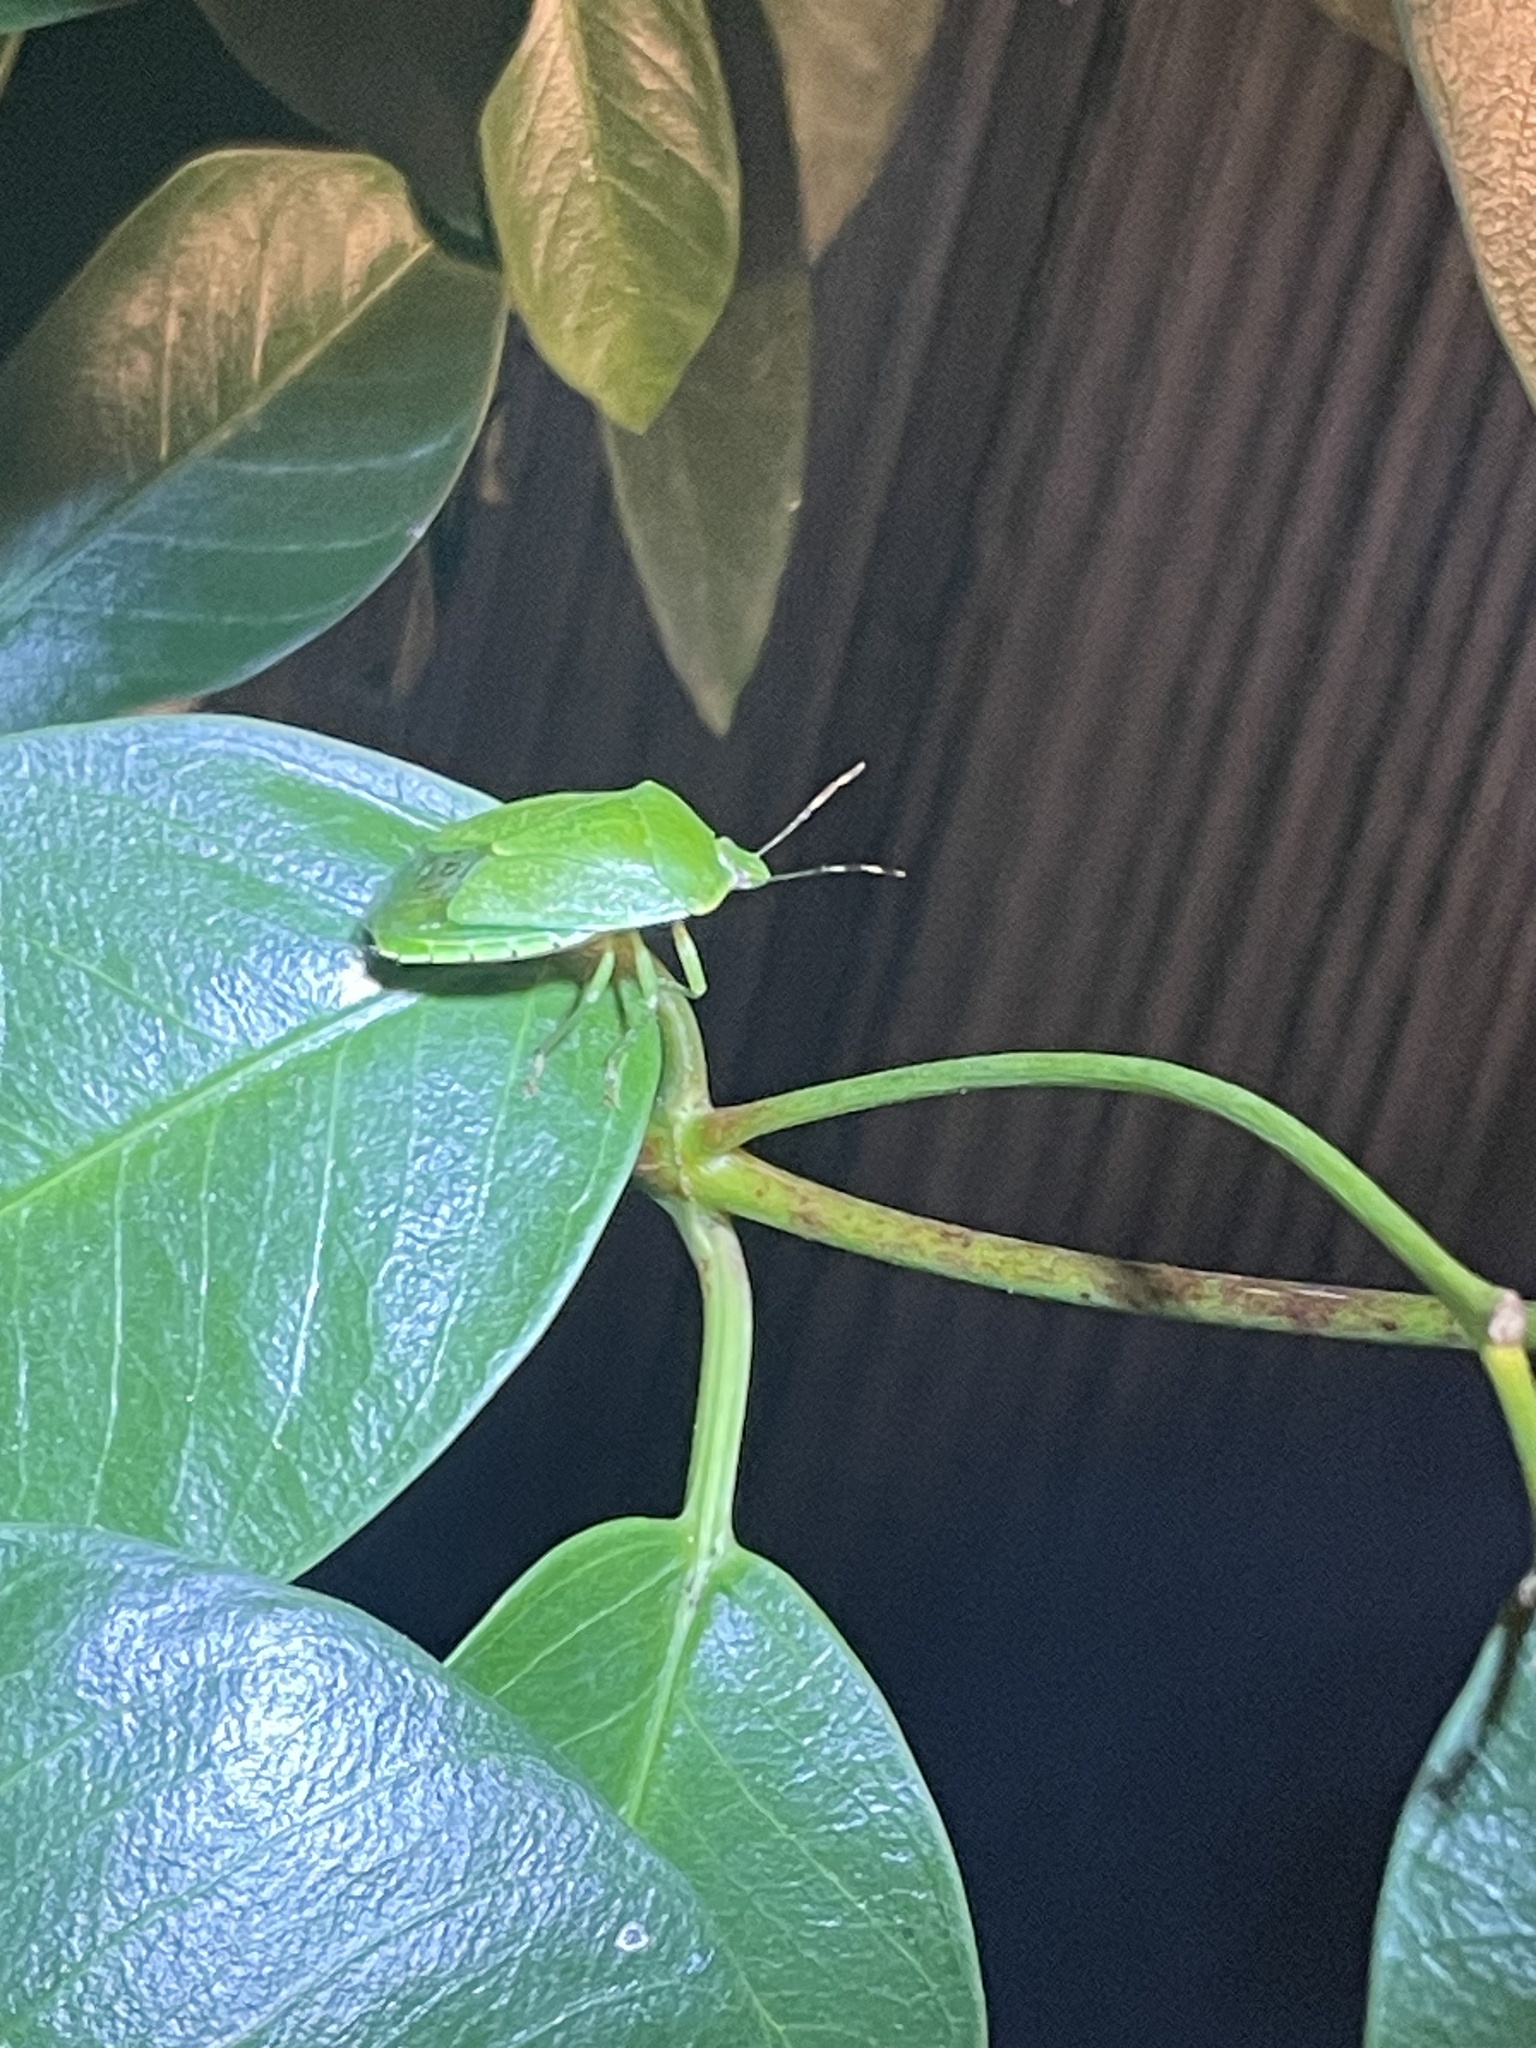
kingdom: Animalia
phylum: Arthropoda
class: Insecta
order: Hemiptera
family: Pentatomidae
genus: Chinavia
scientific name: Chinavia hilaris
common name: Green stink bug
